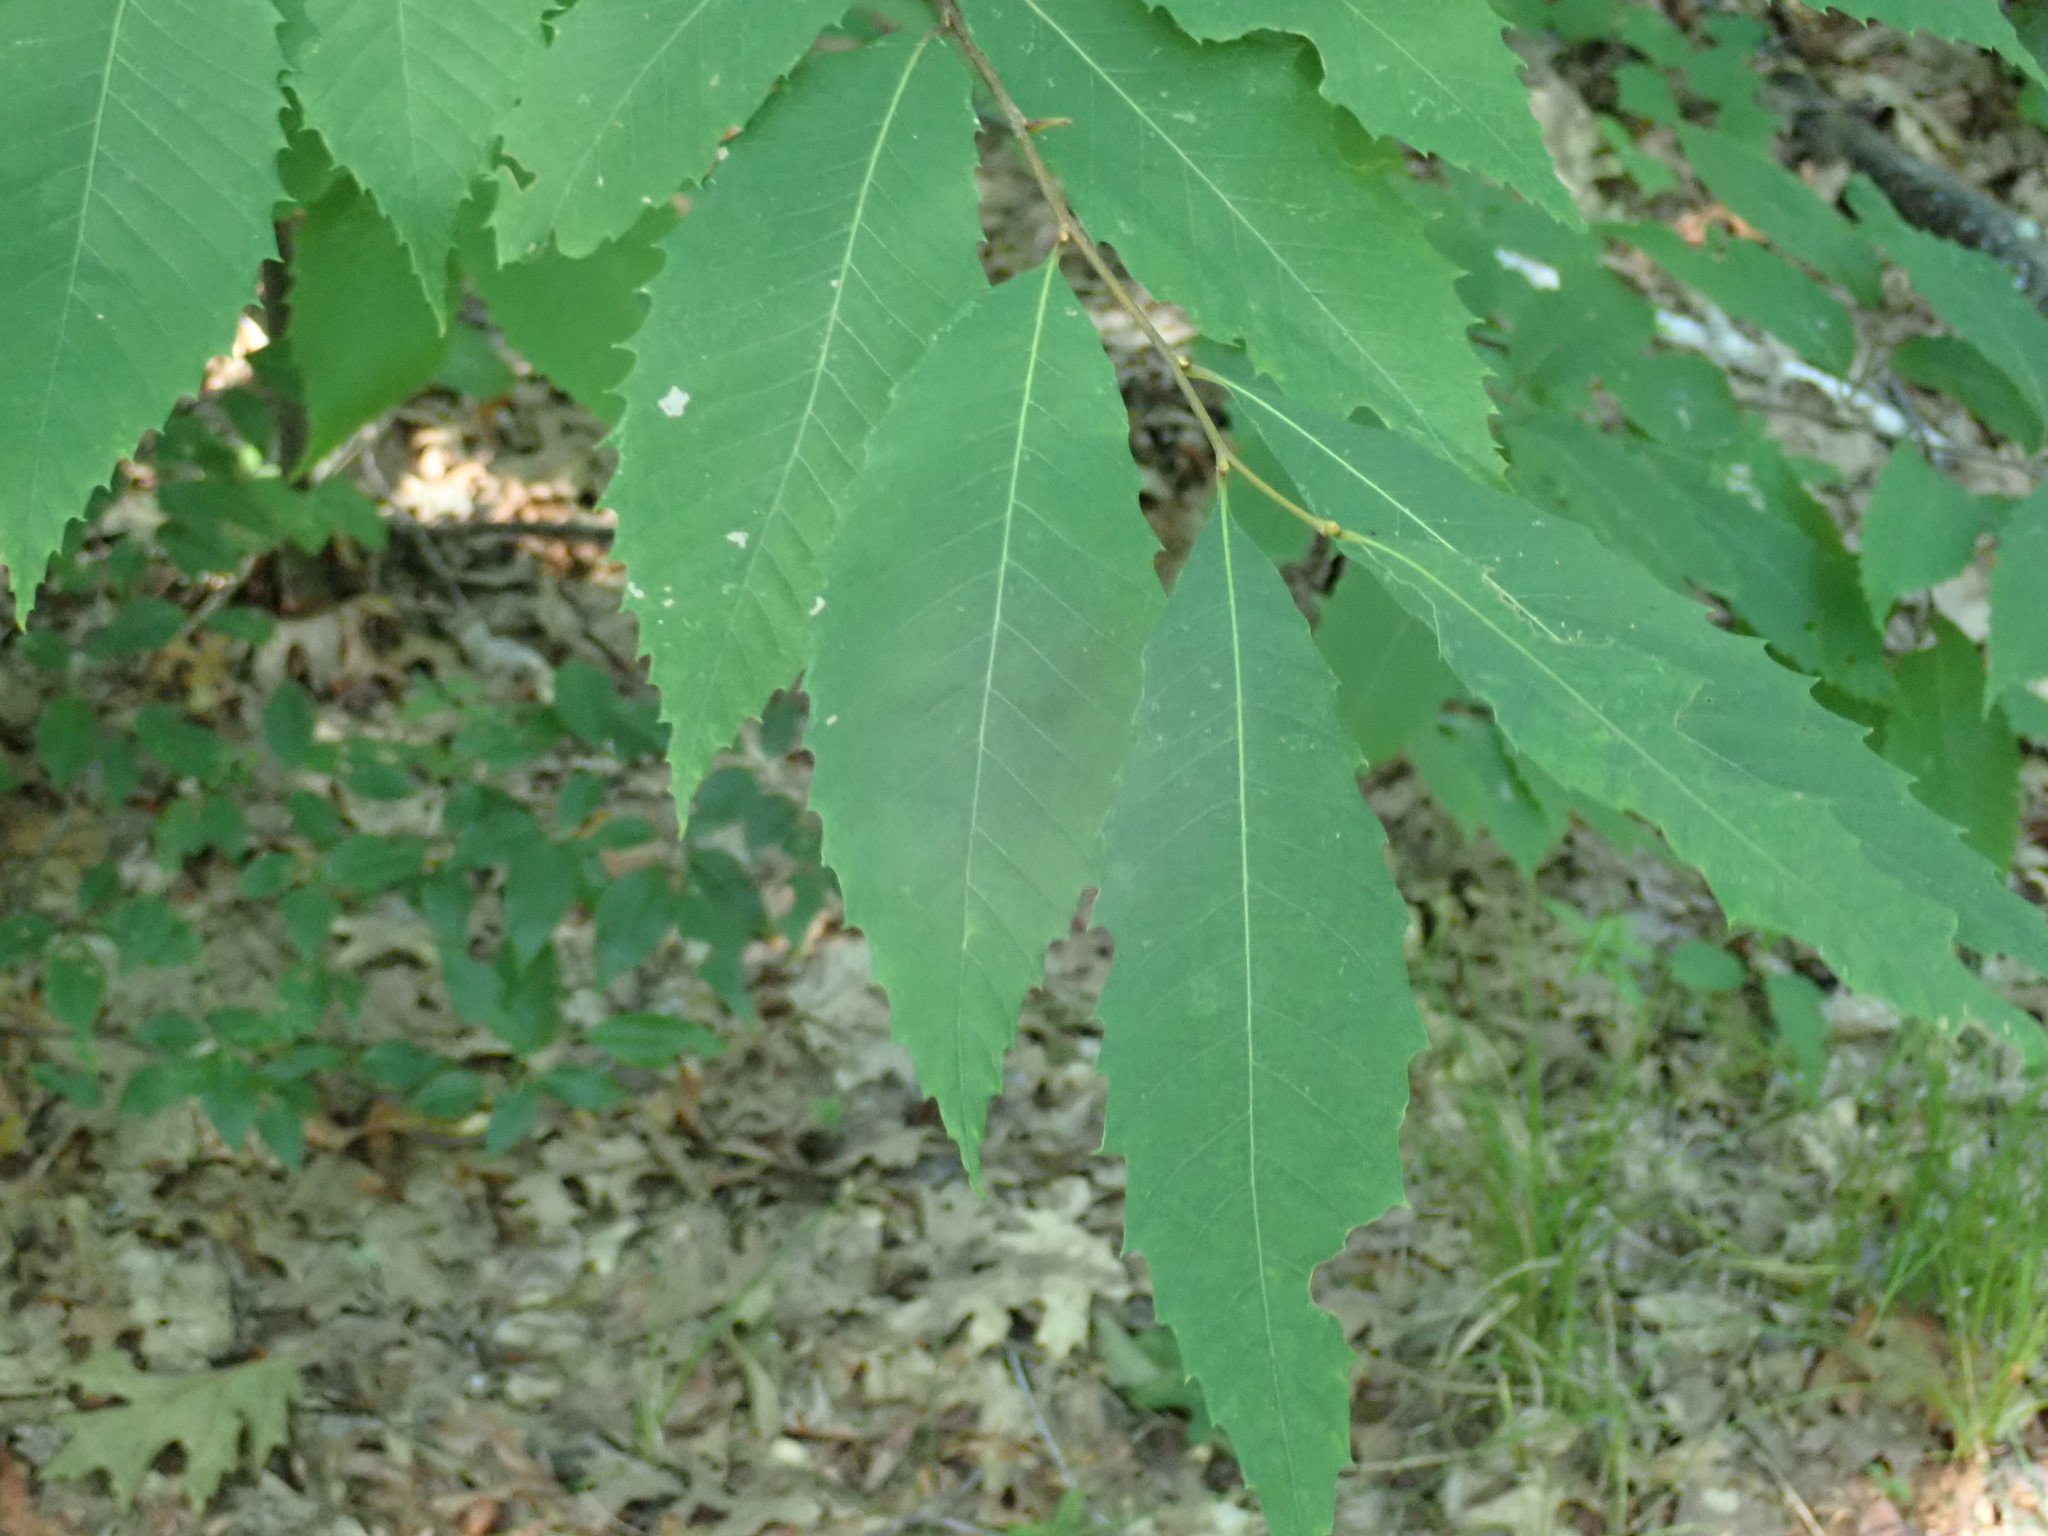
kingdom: Plantae
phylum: Tracheophyta
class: Magnoliopsida
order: Fagales
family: Fagaceae
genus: Castanea
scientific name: Castanea dentata
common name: American chestnut
